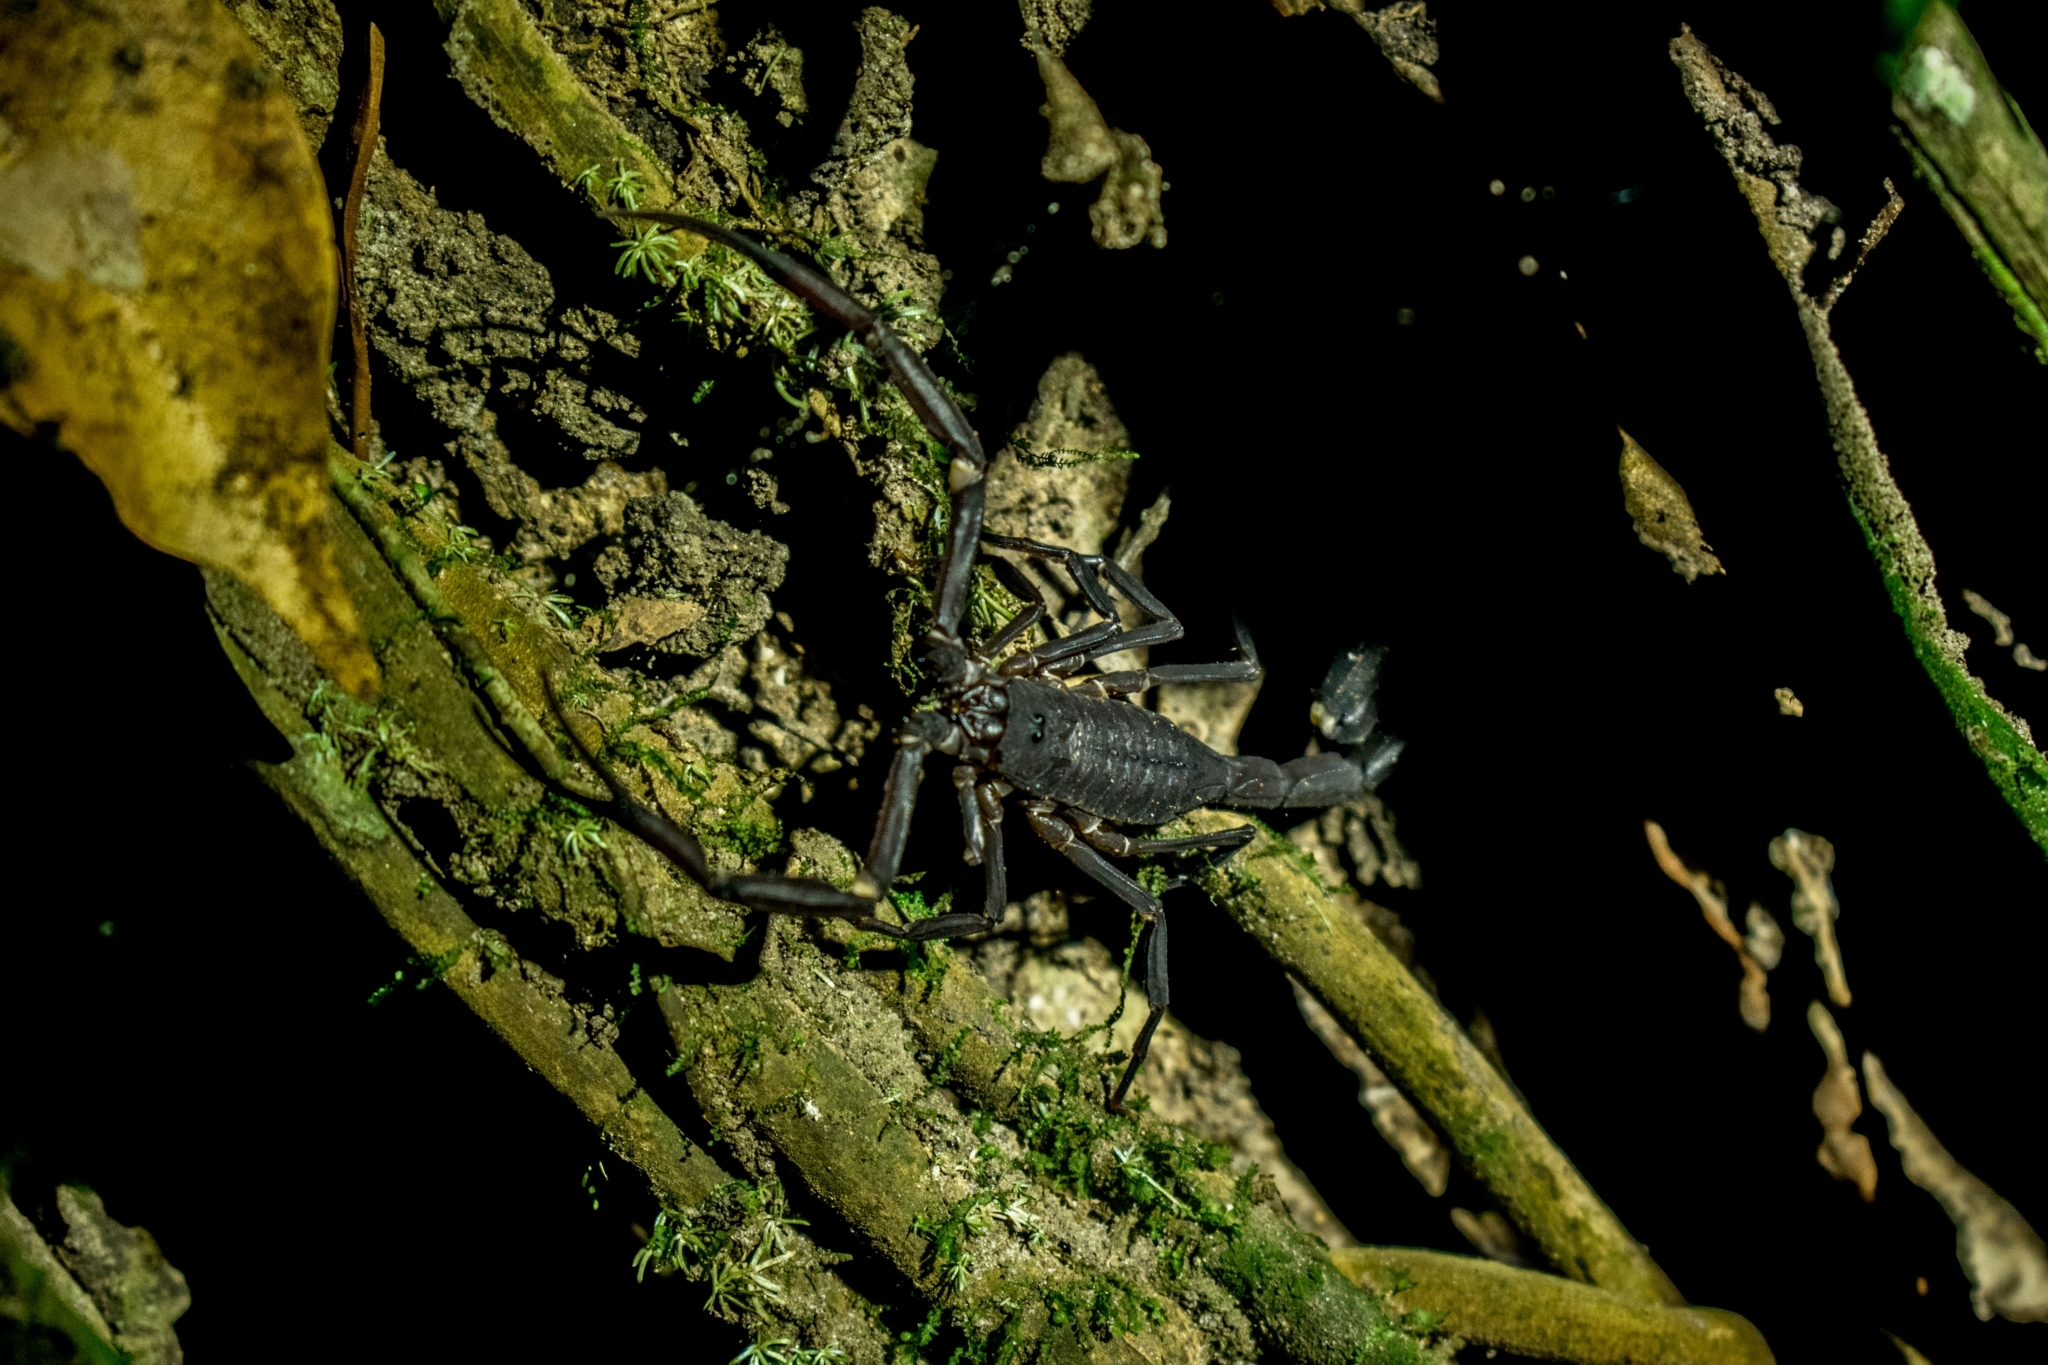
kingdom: Animalia
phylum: Arthropoda
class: Arachnida
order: Scorpiones
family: Buthidae
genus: Tityus
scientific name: Tityus obscurus
